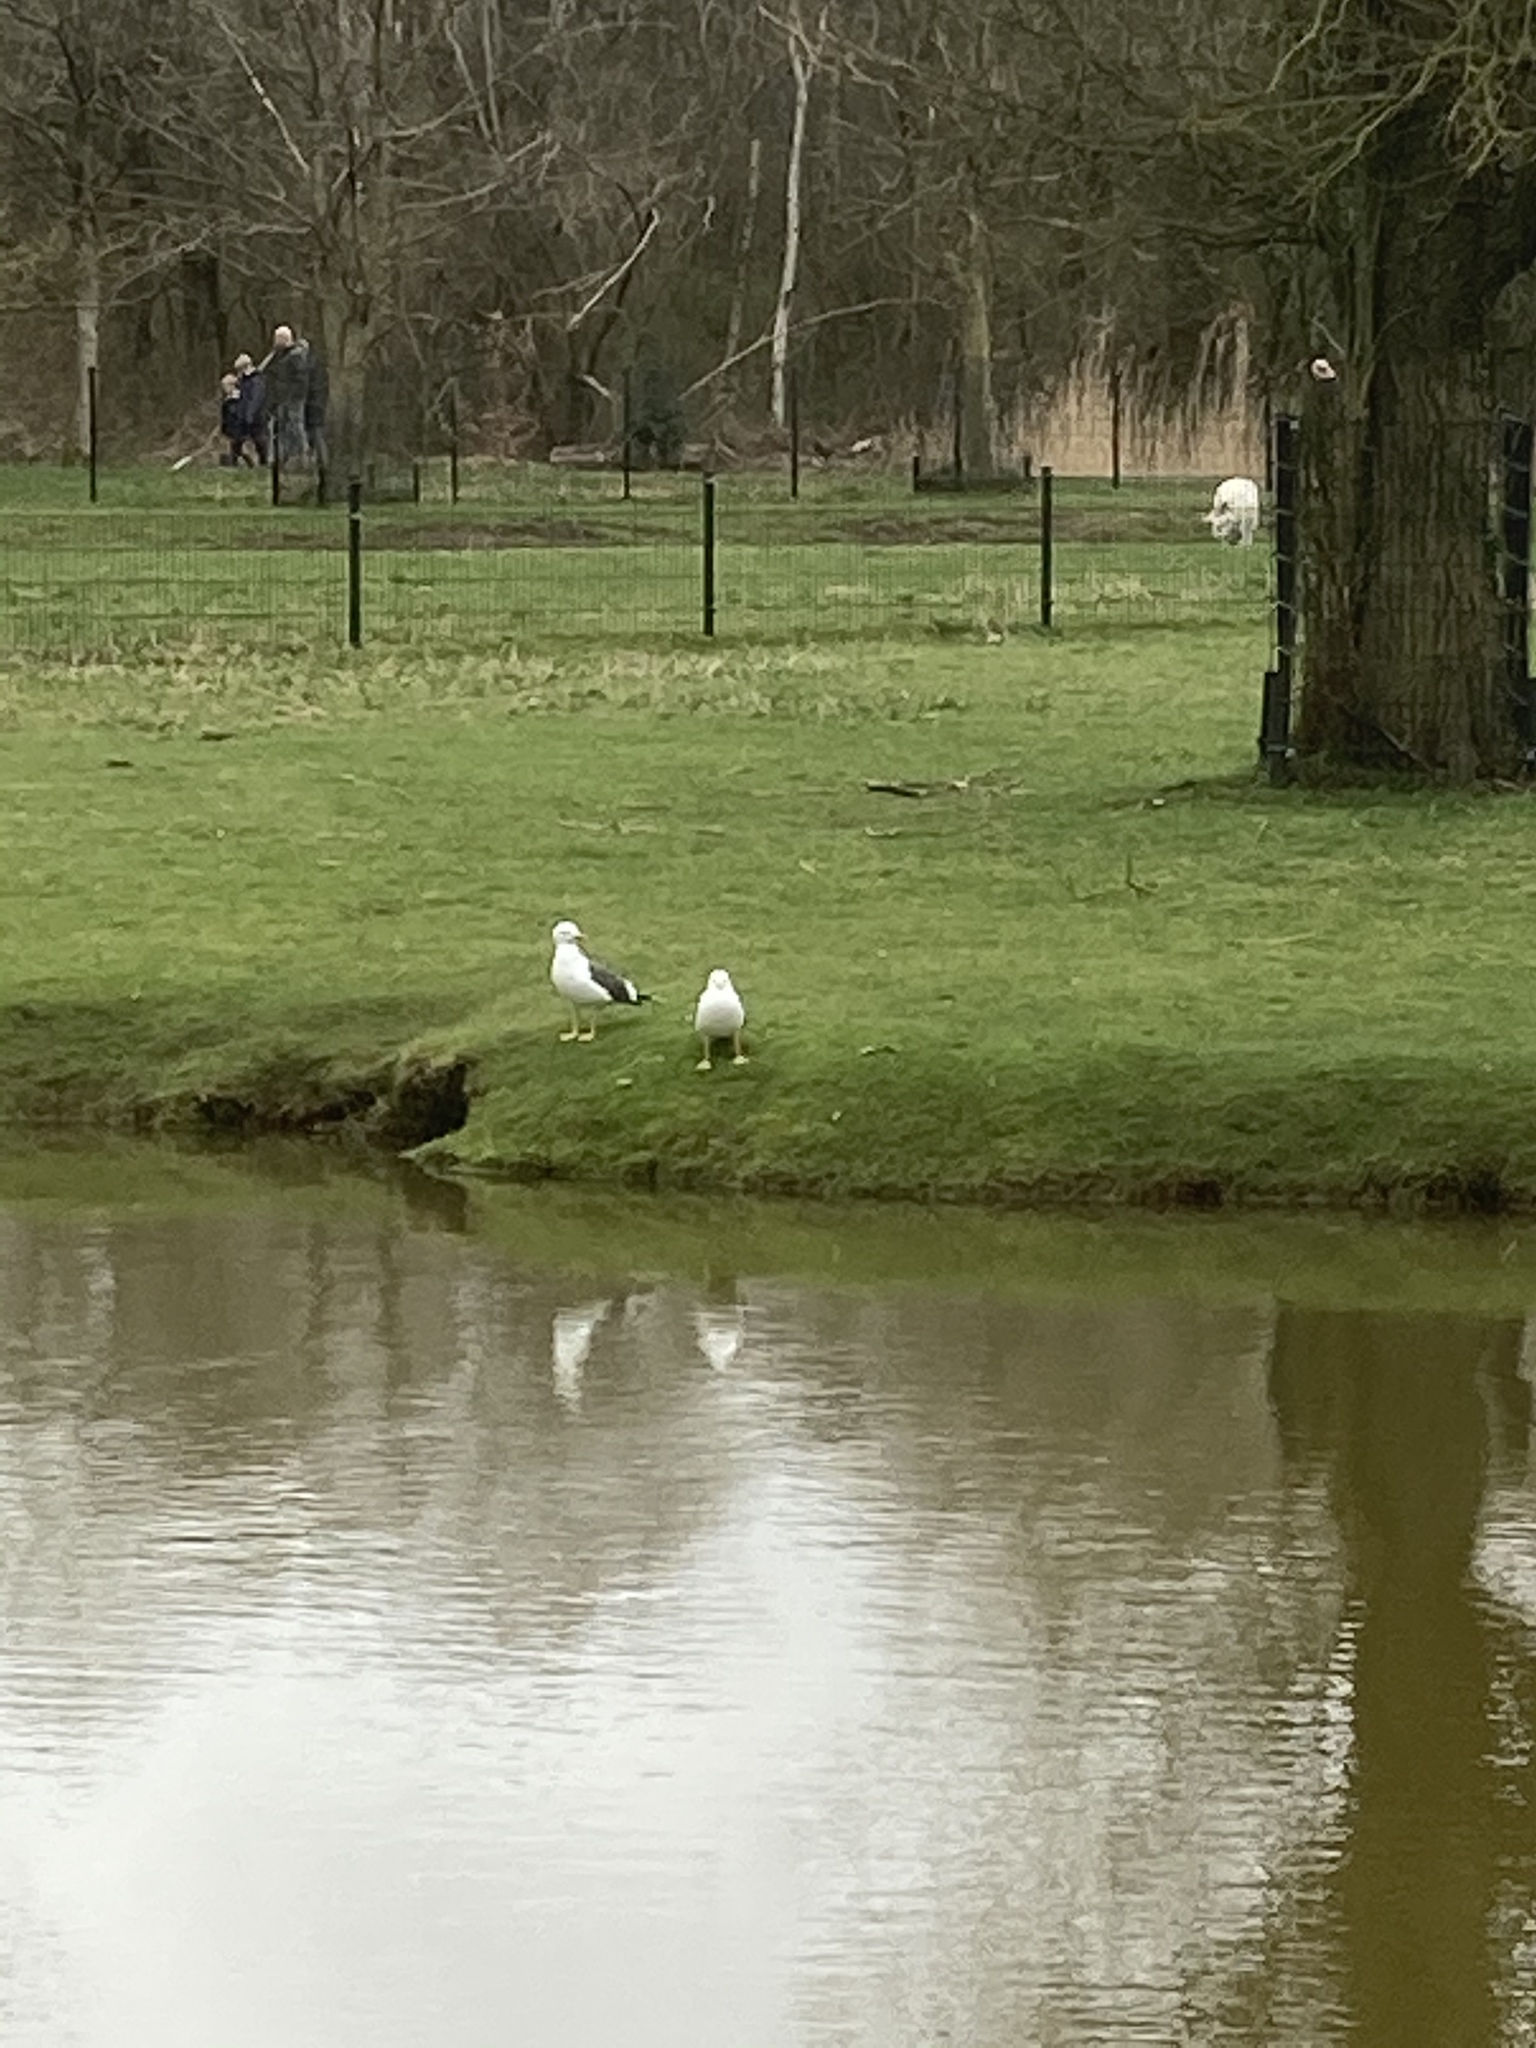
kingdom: Animalia
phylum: Chordata
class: Aves
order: Charadriiformes
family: Laridae
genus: Larus
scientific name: Larus fuscus
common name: Lesser black-backed gull
